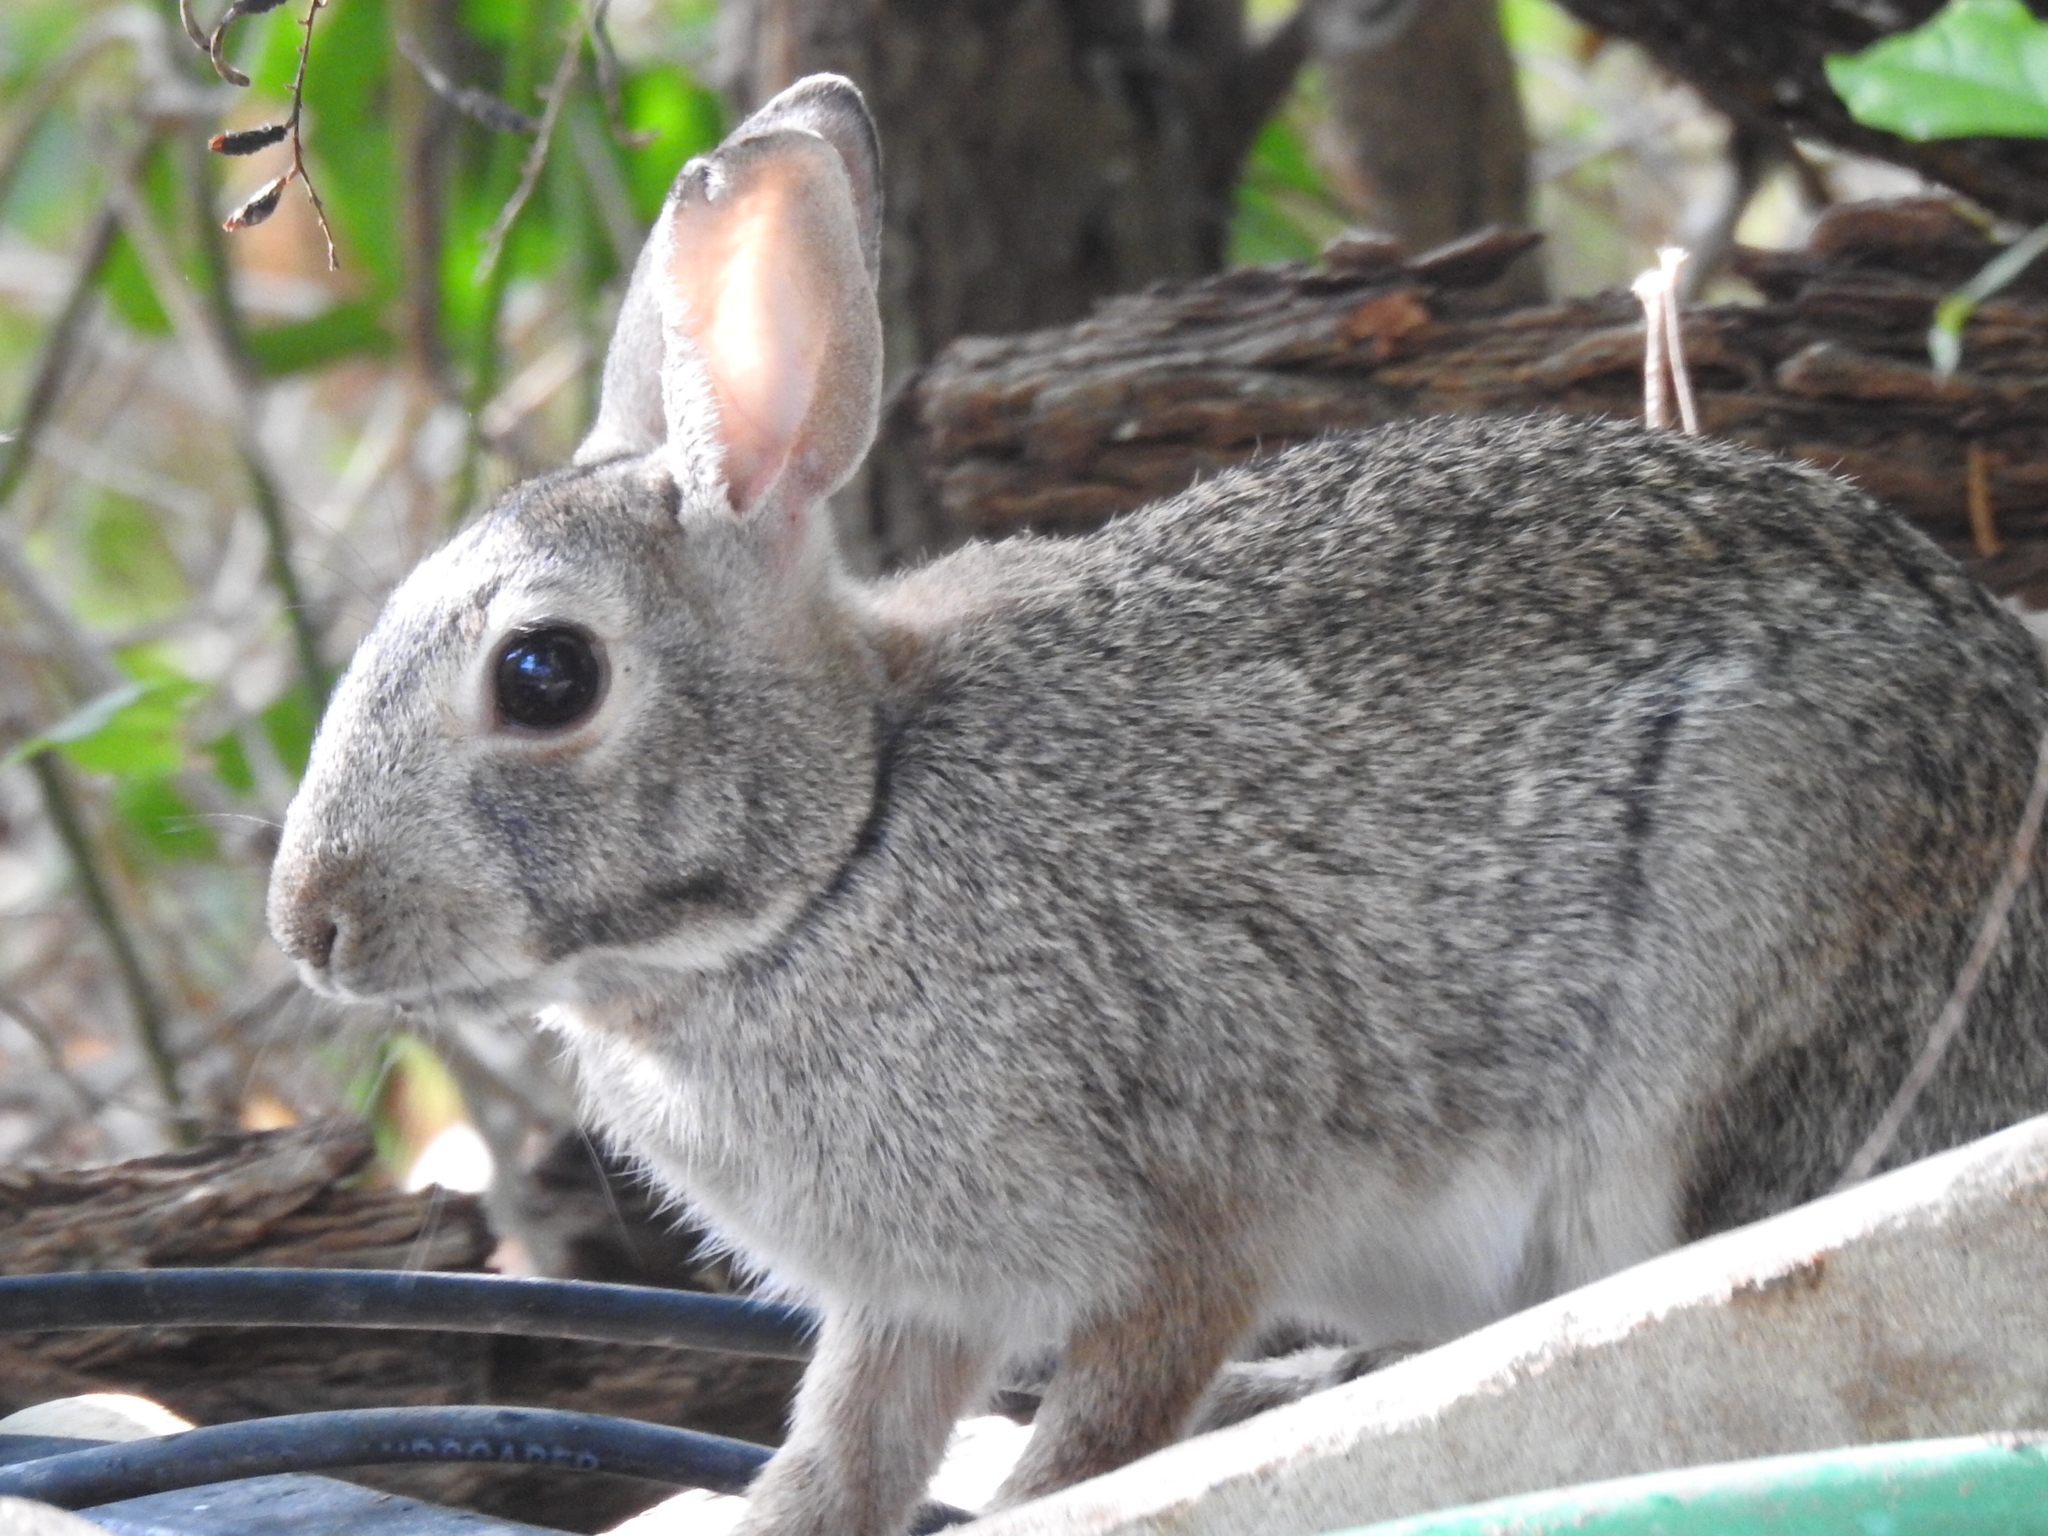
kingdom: Animalia
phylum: Chordata
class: Mammalia
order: Lagomorpha
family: Leporidae
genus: Sylvilagus
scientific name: Sylvilagus floridanus
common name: Eastern cottontail
